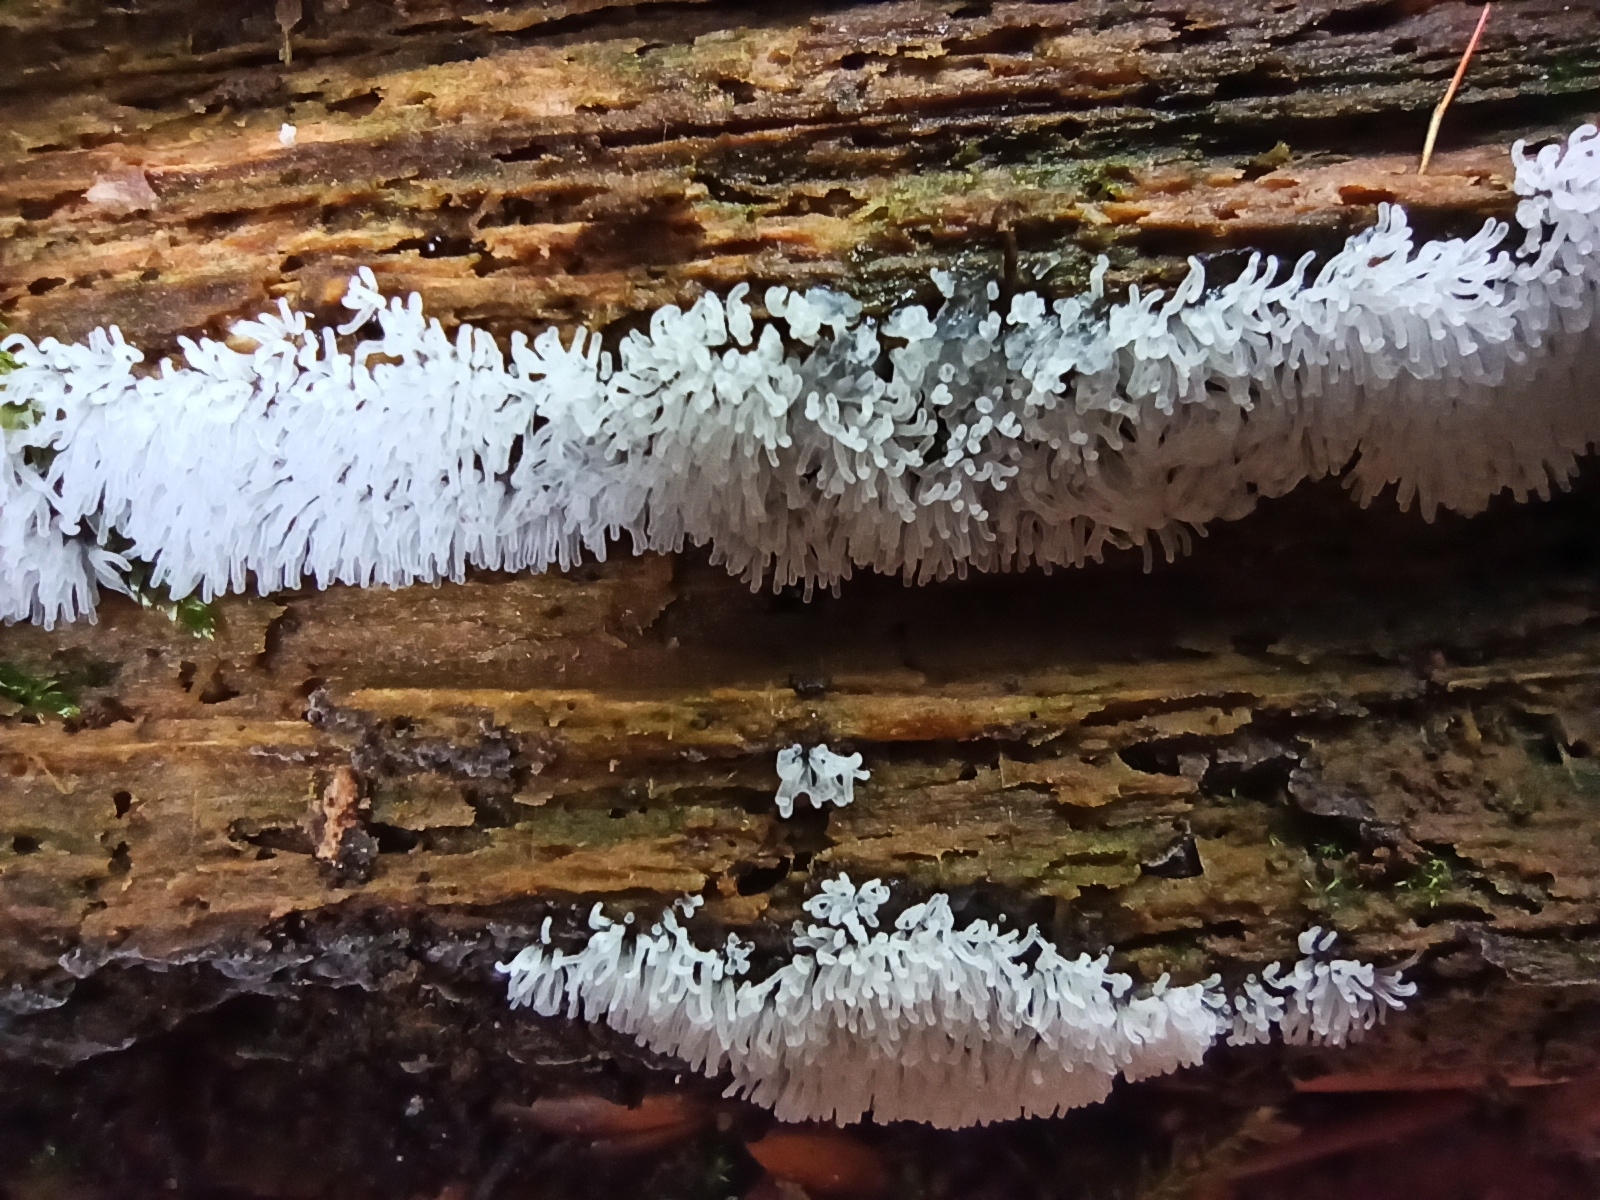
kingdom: Protozoa
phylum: Mycetozoa
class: Protosteliomycetes
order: Ceratiomyxales
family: Ceratiomyxaceae
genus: Ceratiomyxa
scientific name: Ceratiomyxa fruticulosa
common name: Honeycomb coral slime mold
